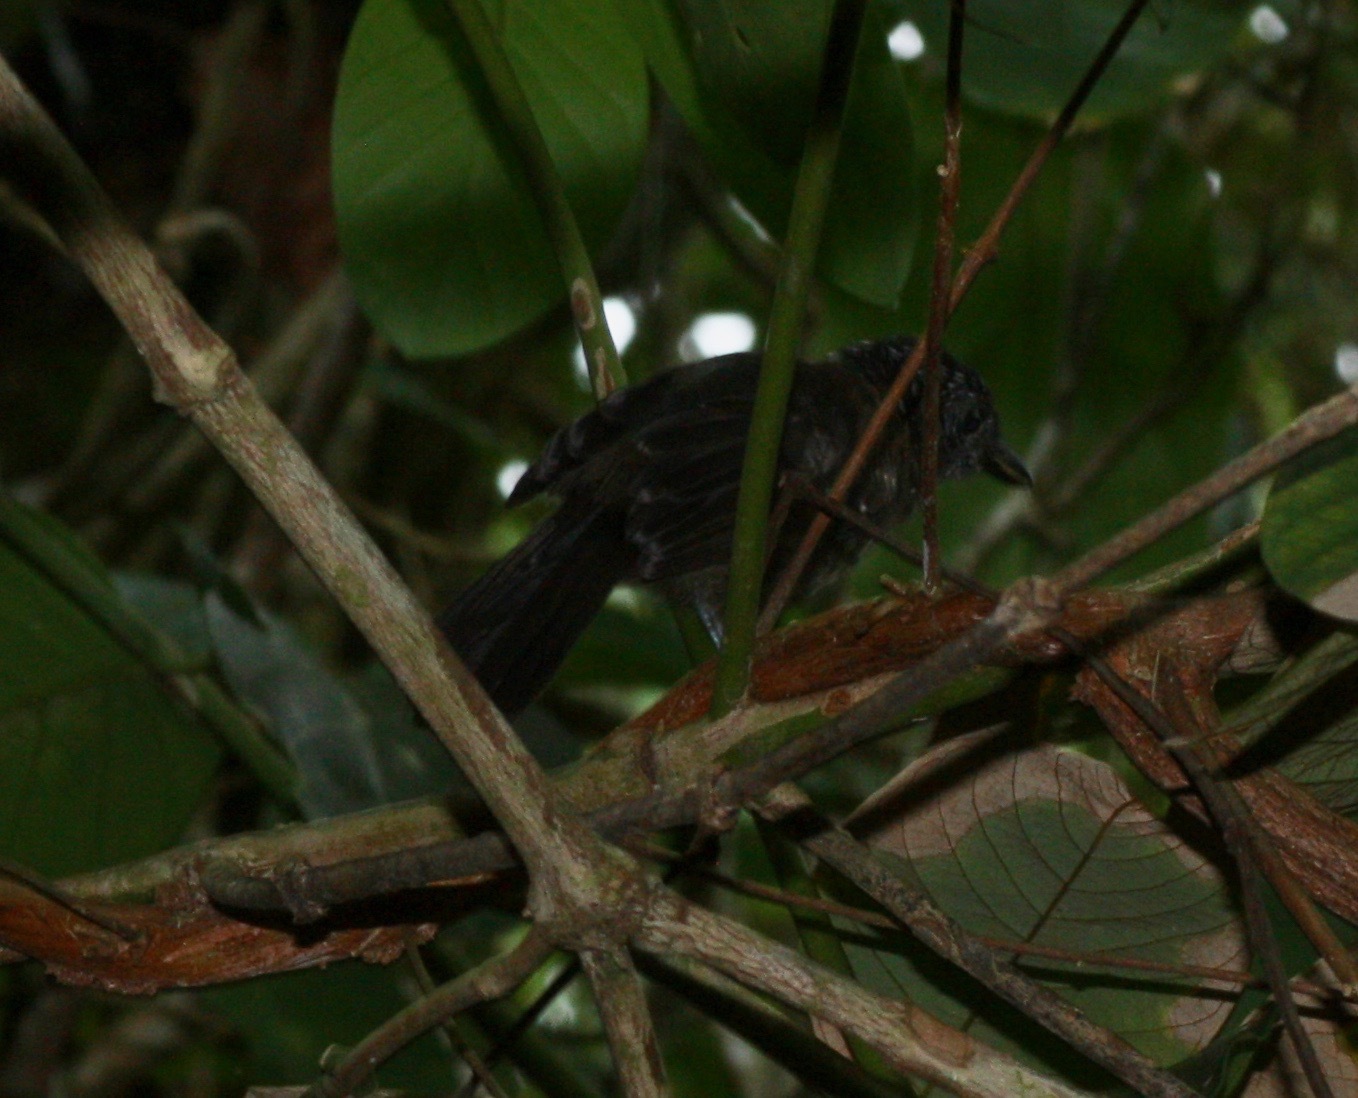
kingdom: Animalia
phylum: Chordata
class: Aves
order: Passeriformes
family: Thamnophilidae
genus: Thamnophilus
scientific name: Thamnophilus bridgesi
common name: Black-hooded antshrike
